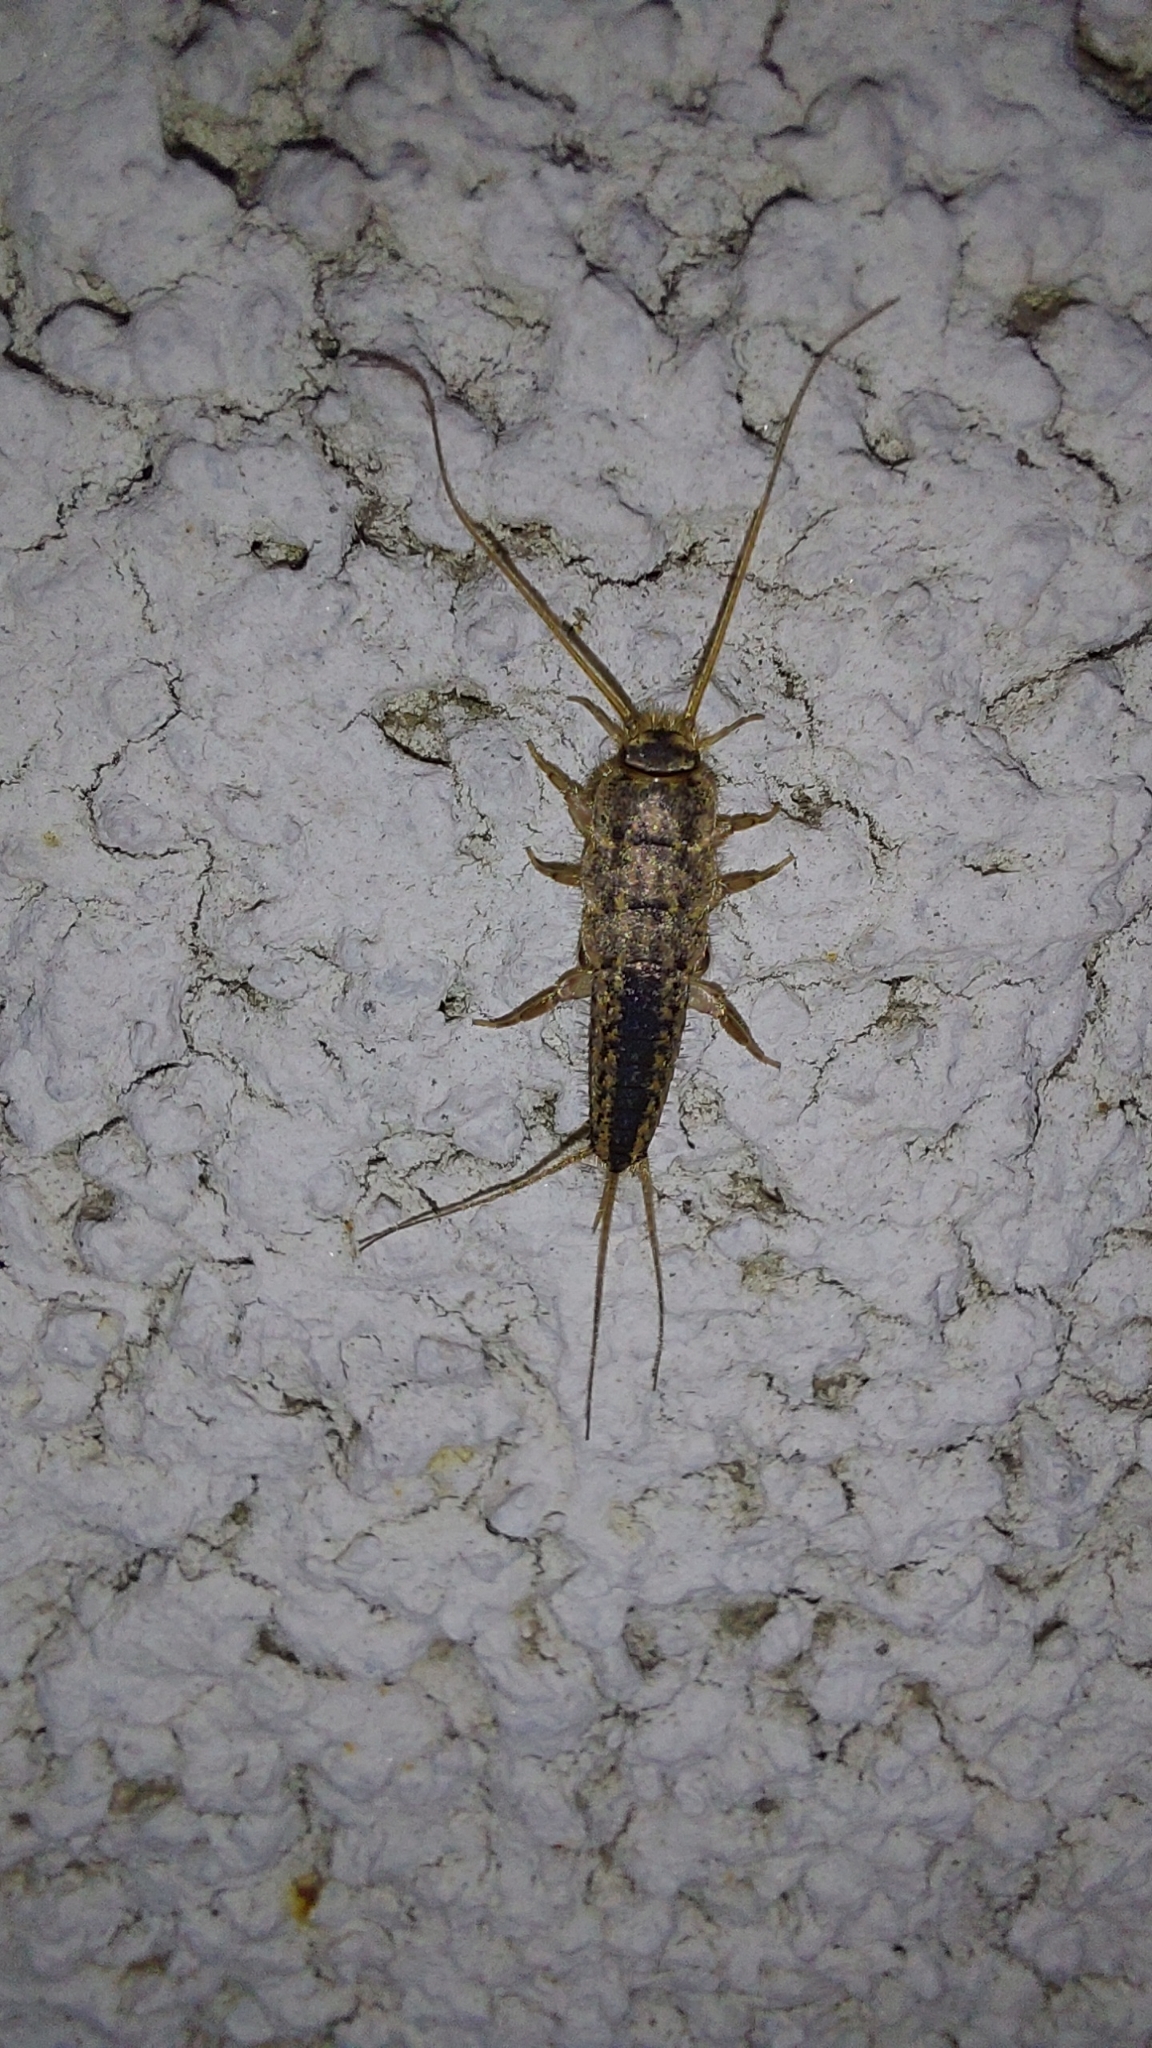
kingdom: Animalia
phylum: Arthropoda
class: Insecta
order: Zygentoma
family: Lepismatidae
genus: Ctenolepisma
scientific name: Ctenolepisma lineata
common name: Four-lined silverfish
